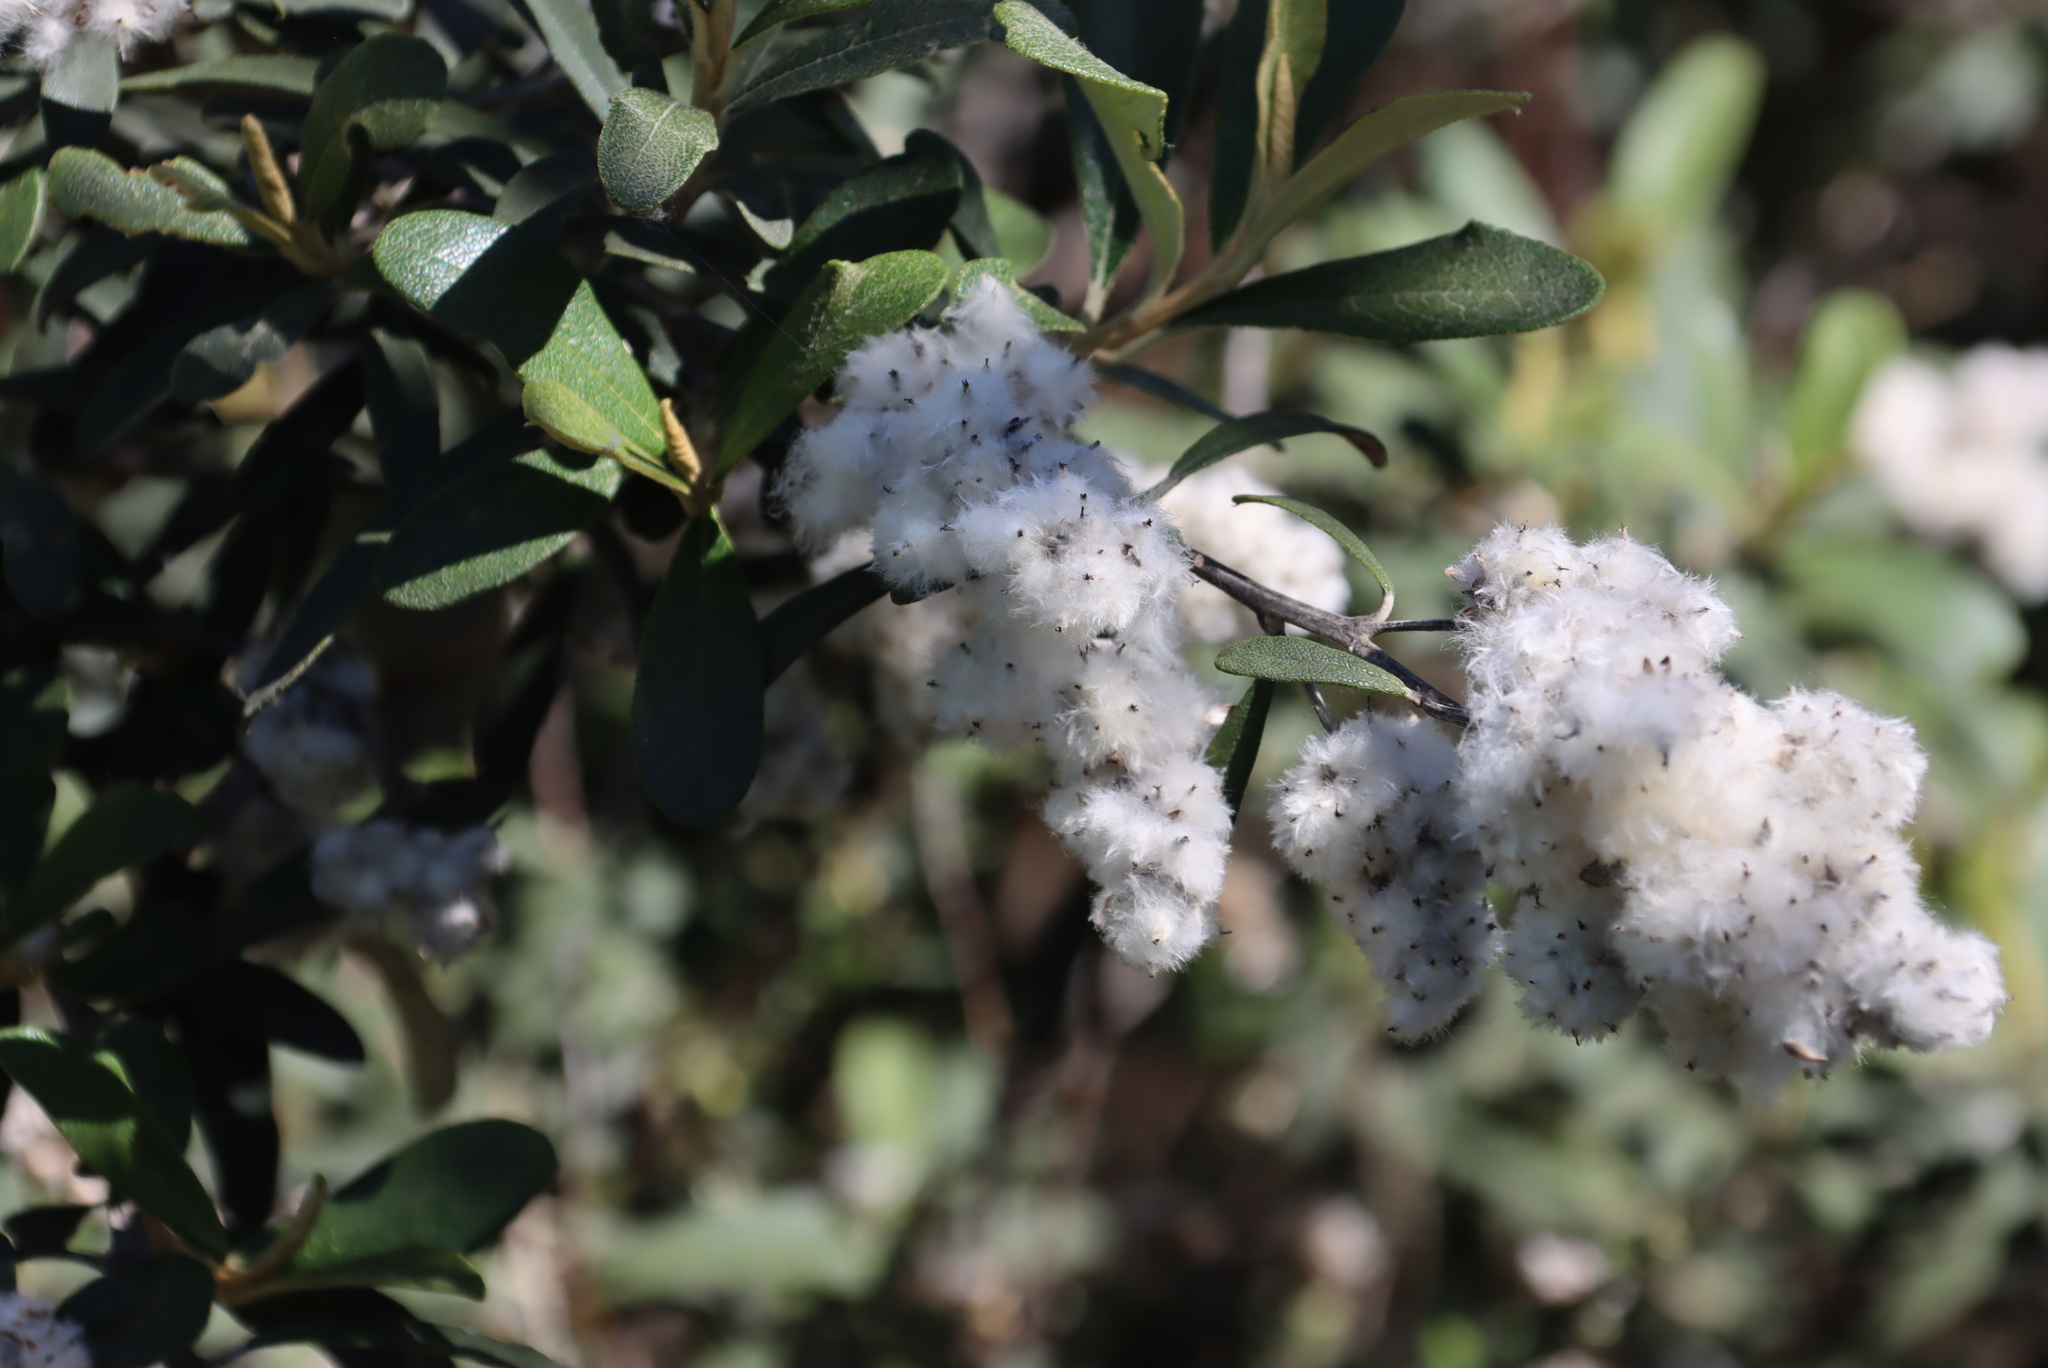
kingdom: Plantae
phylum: Tracheophyta
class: Magnoliopsida
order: Asterales
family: Asteraceae
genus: Tarchonanthus
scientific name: Tarchonanthus littoralis
